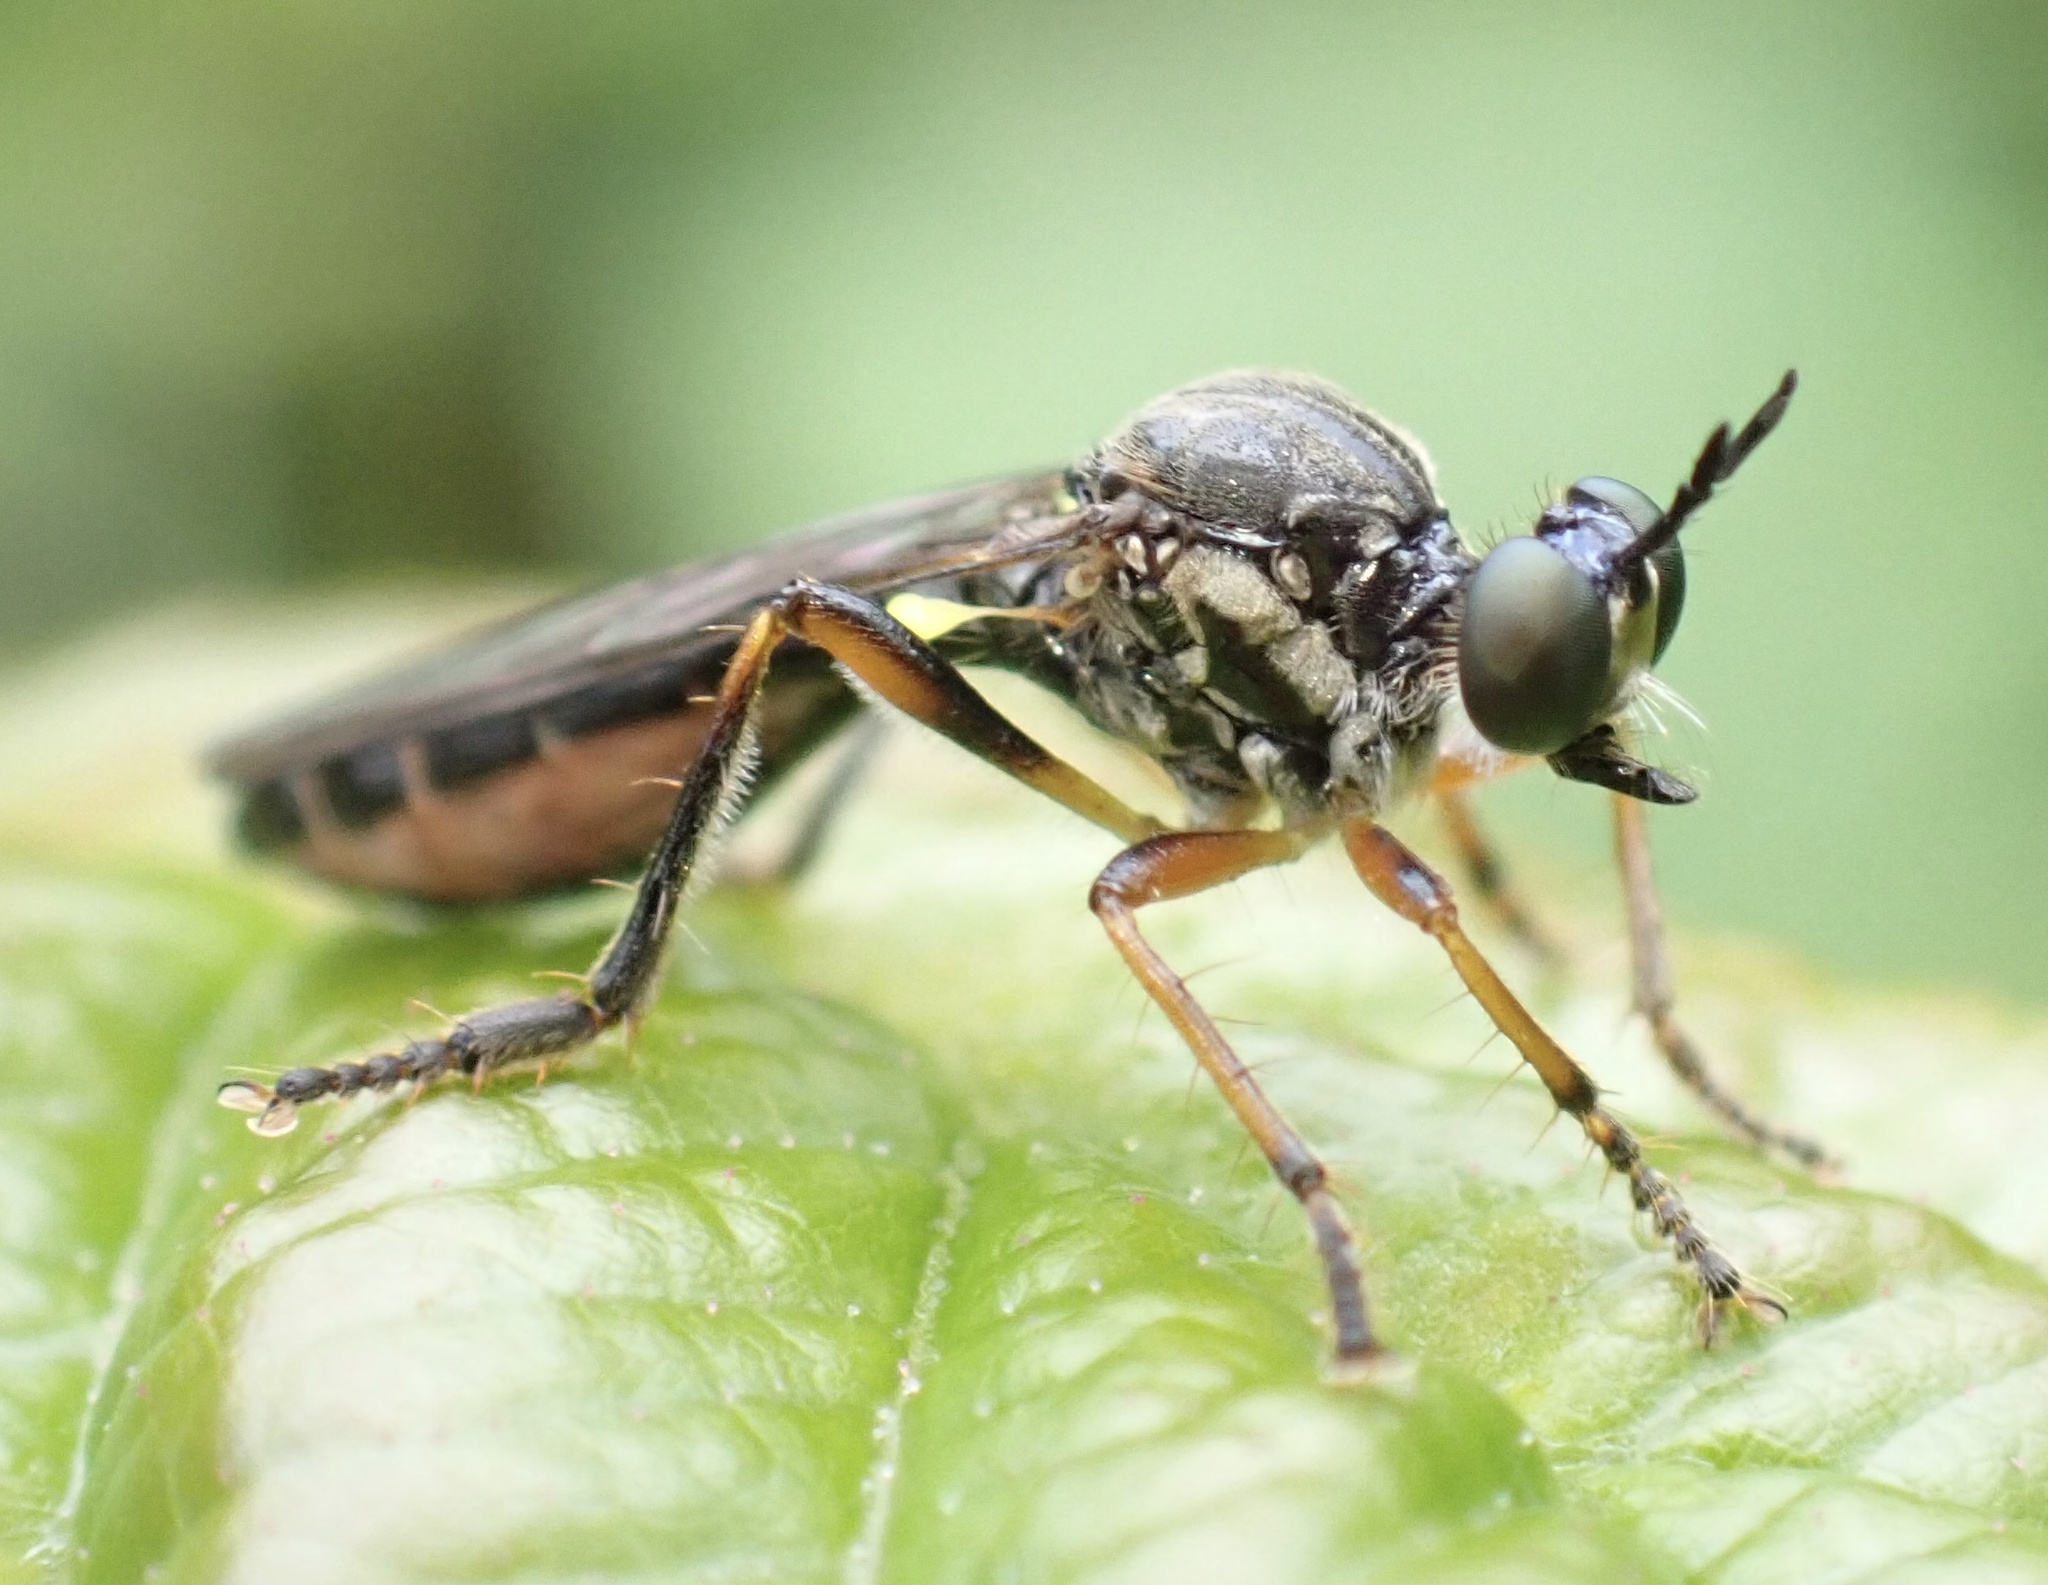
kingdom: Animalia
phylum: Arthropoda
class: Insecta
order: Diptera
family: Asilidae
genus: Dioctria
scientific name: Dioctria hyalipennis
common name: Stripe-legged robberfly
